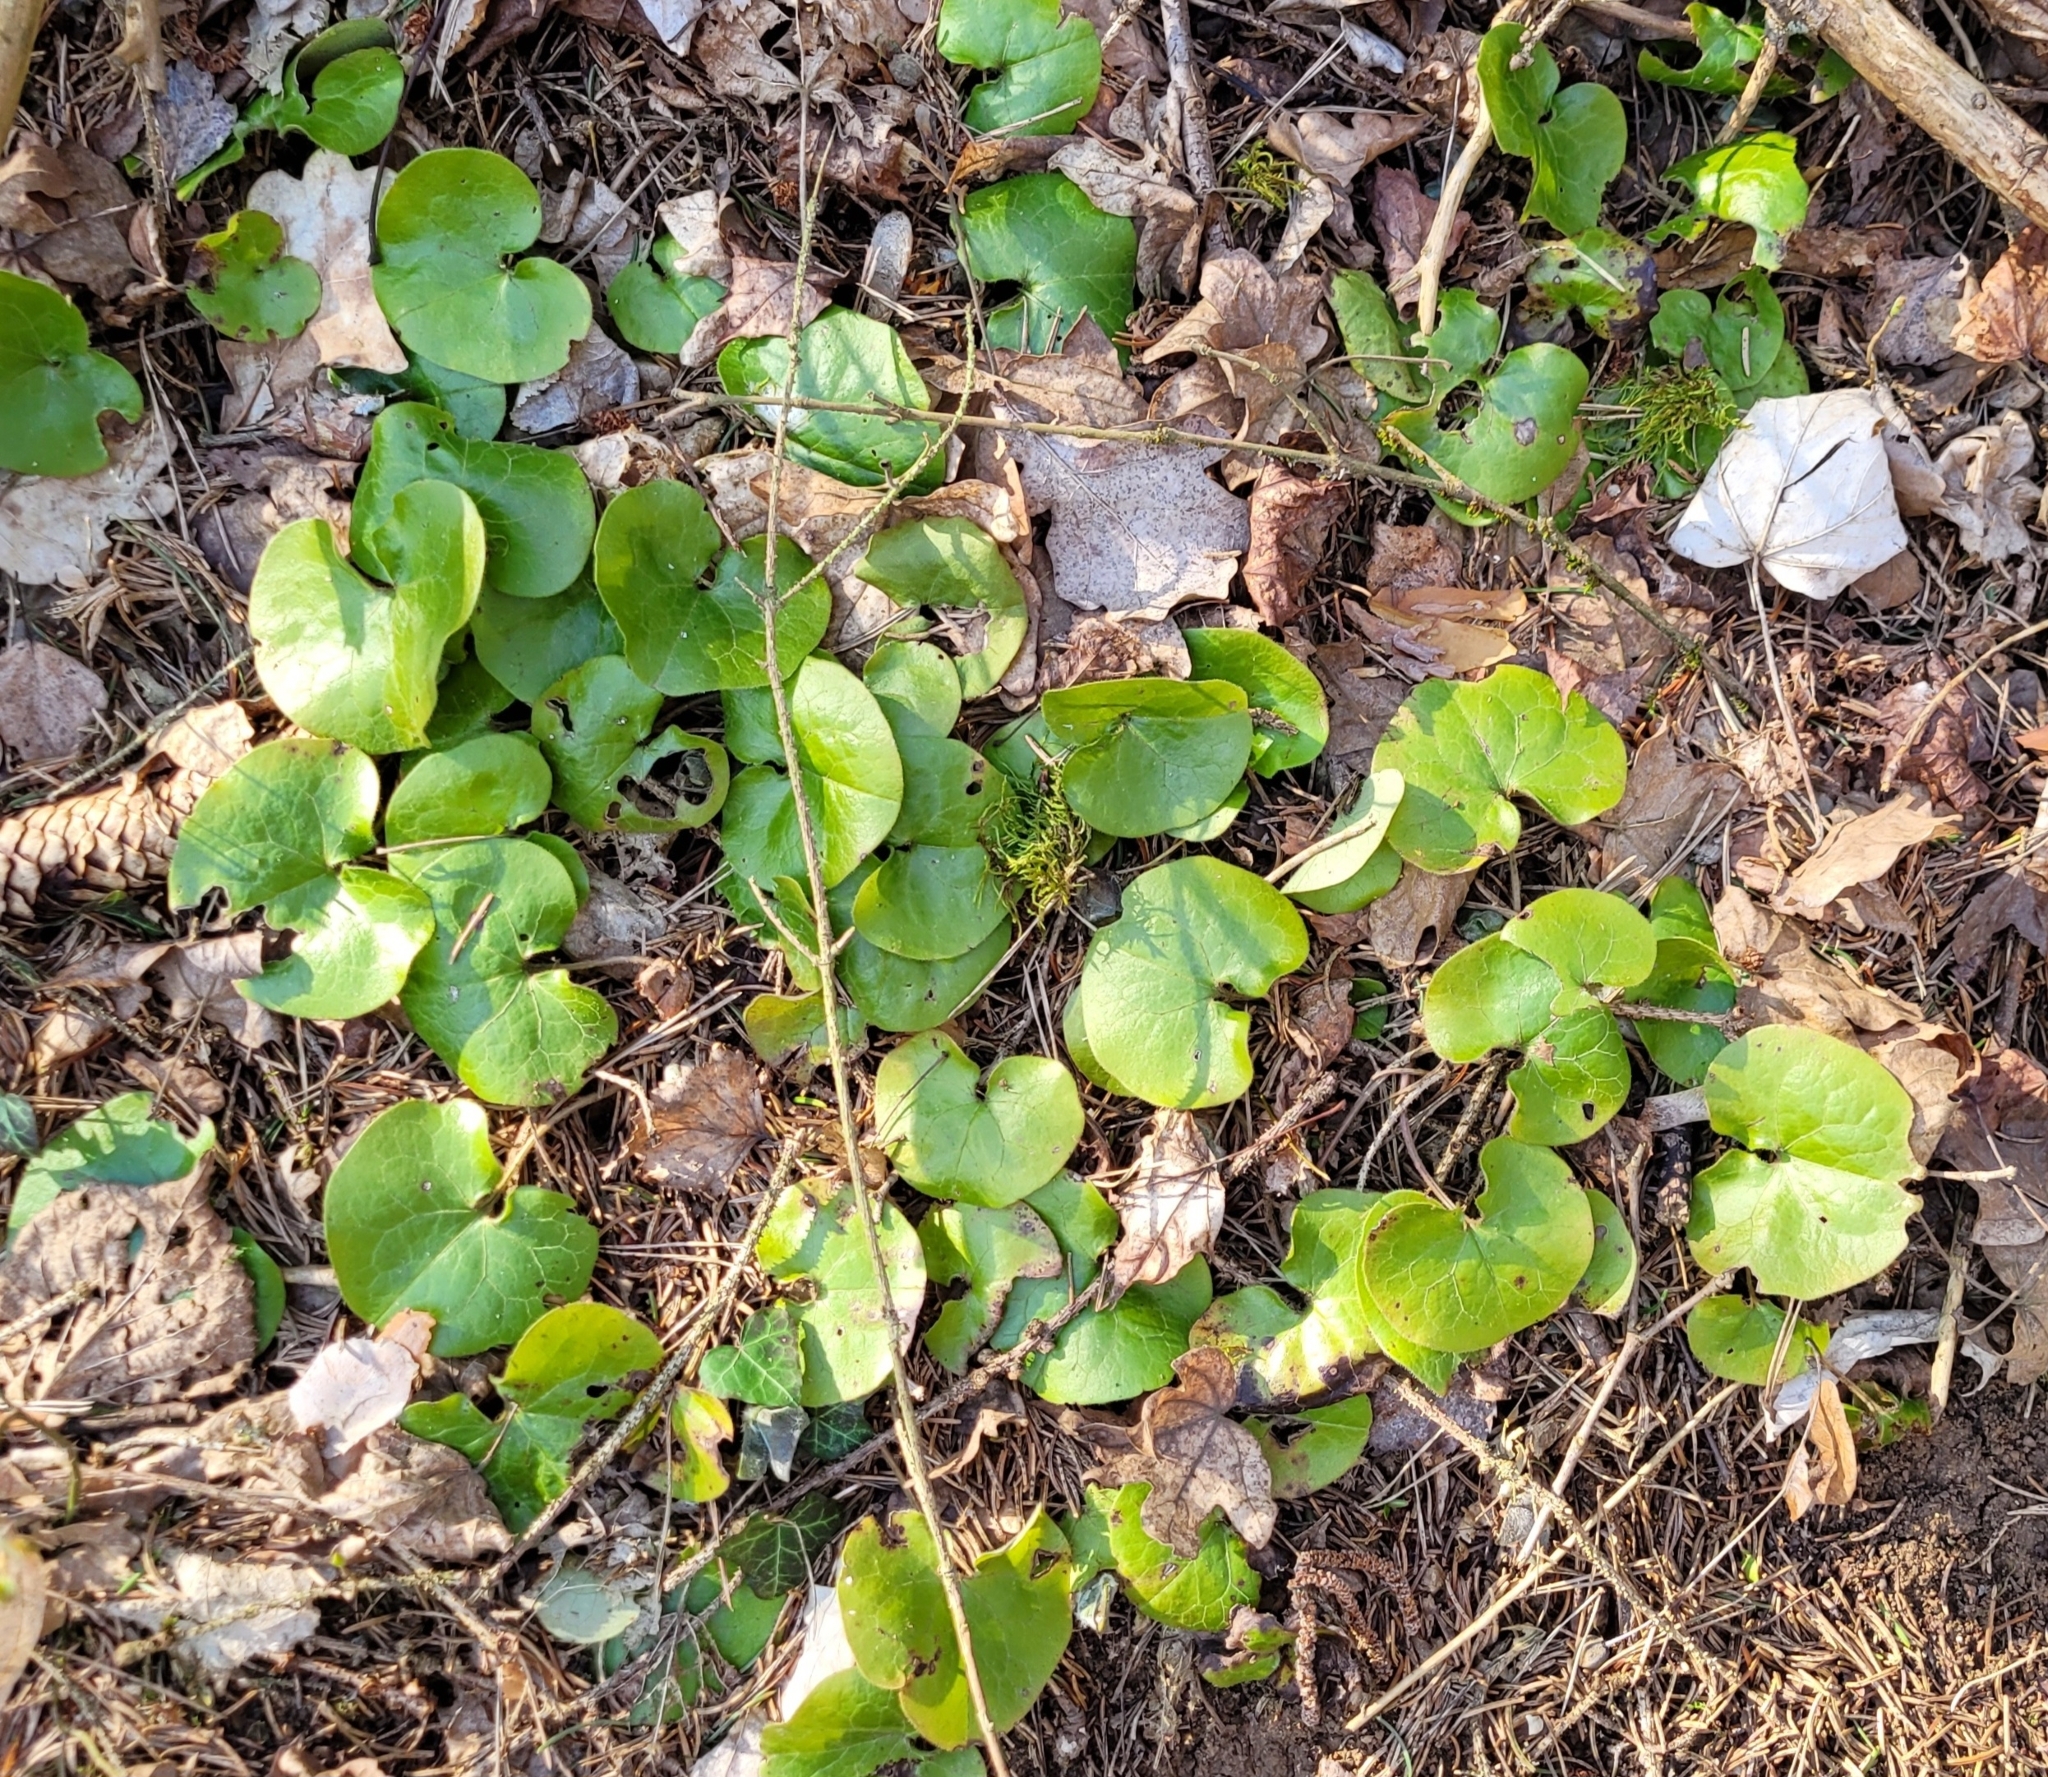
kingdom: Plantae
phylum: Tracheophyta
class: Magnoliopsida
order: Piperales
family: Aristolochiaceae
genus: Asarum
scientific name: Asarum europaeum
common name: Asarabacca
